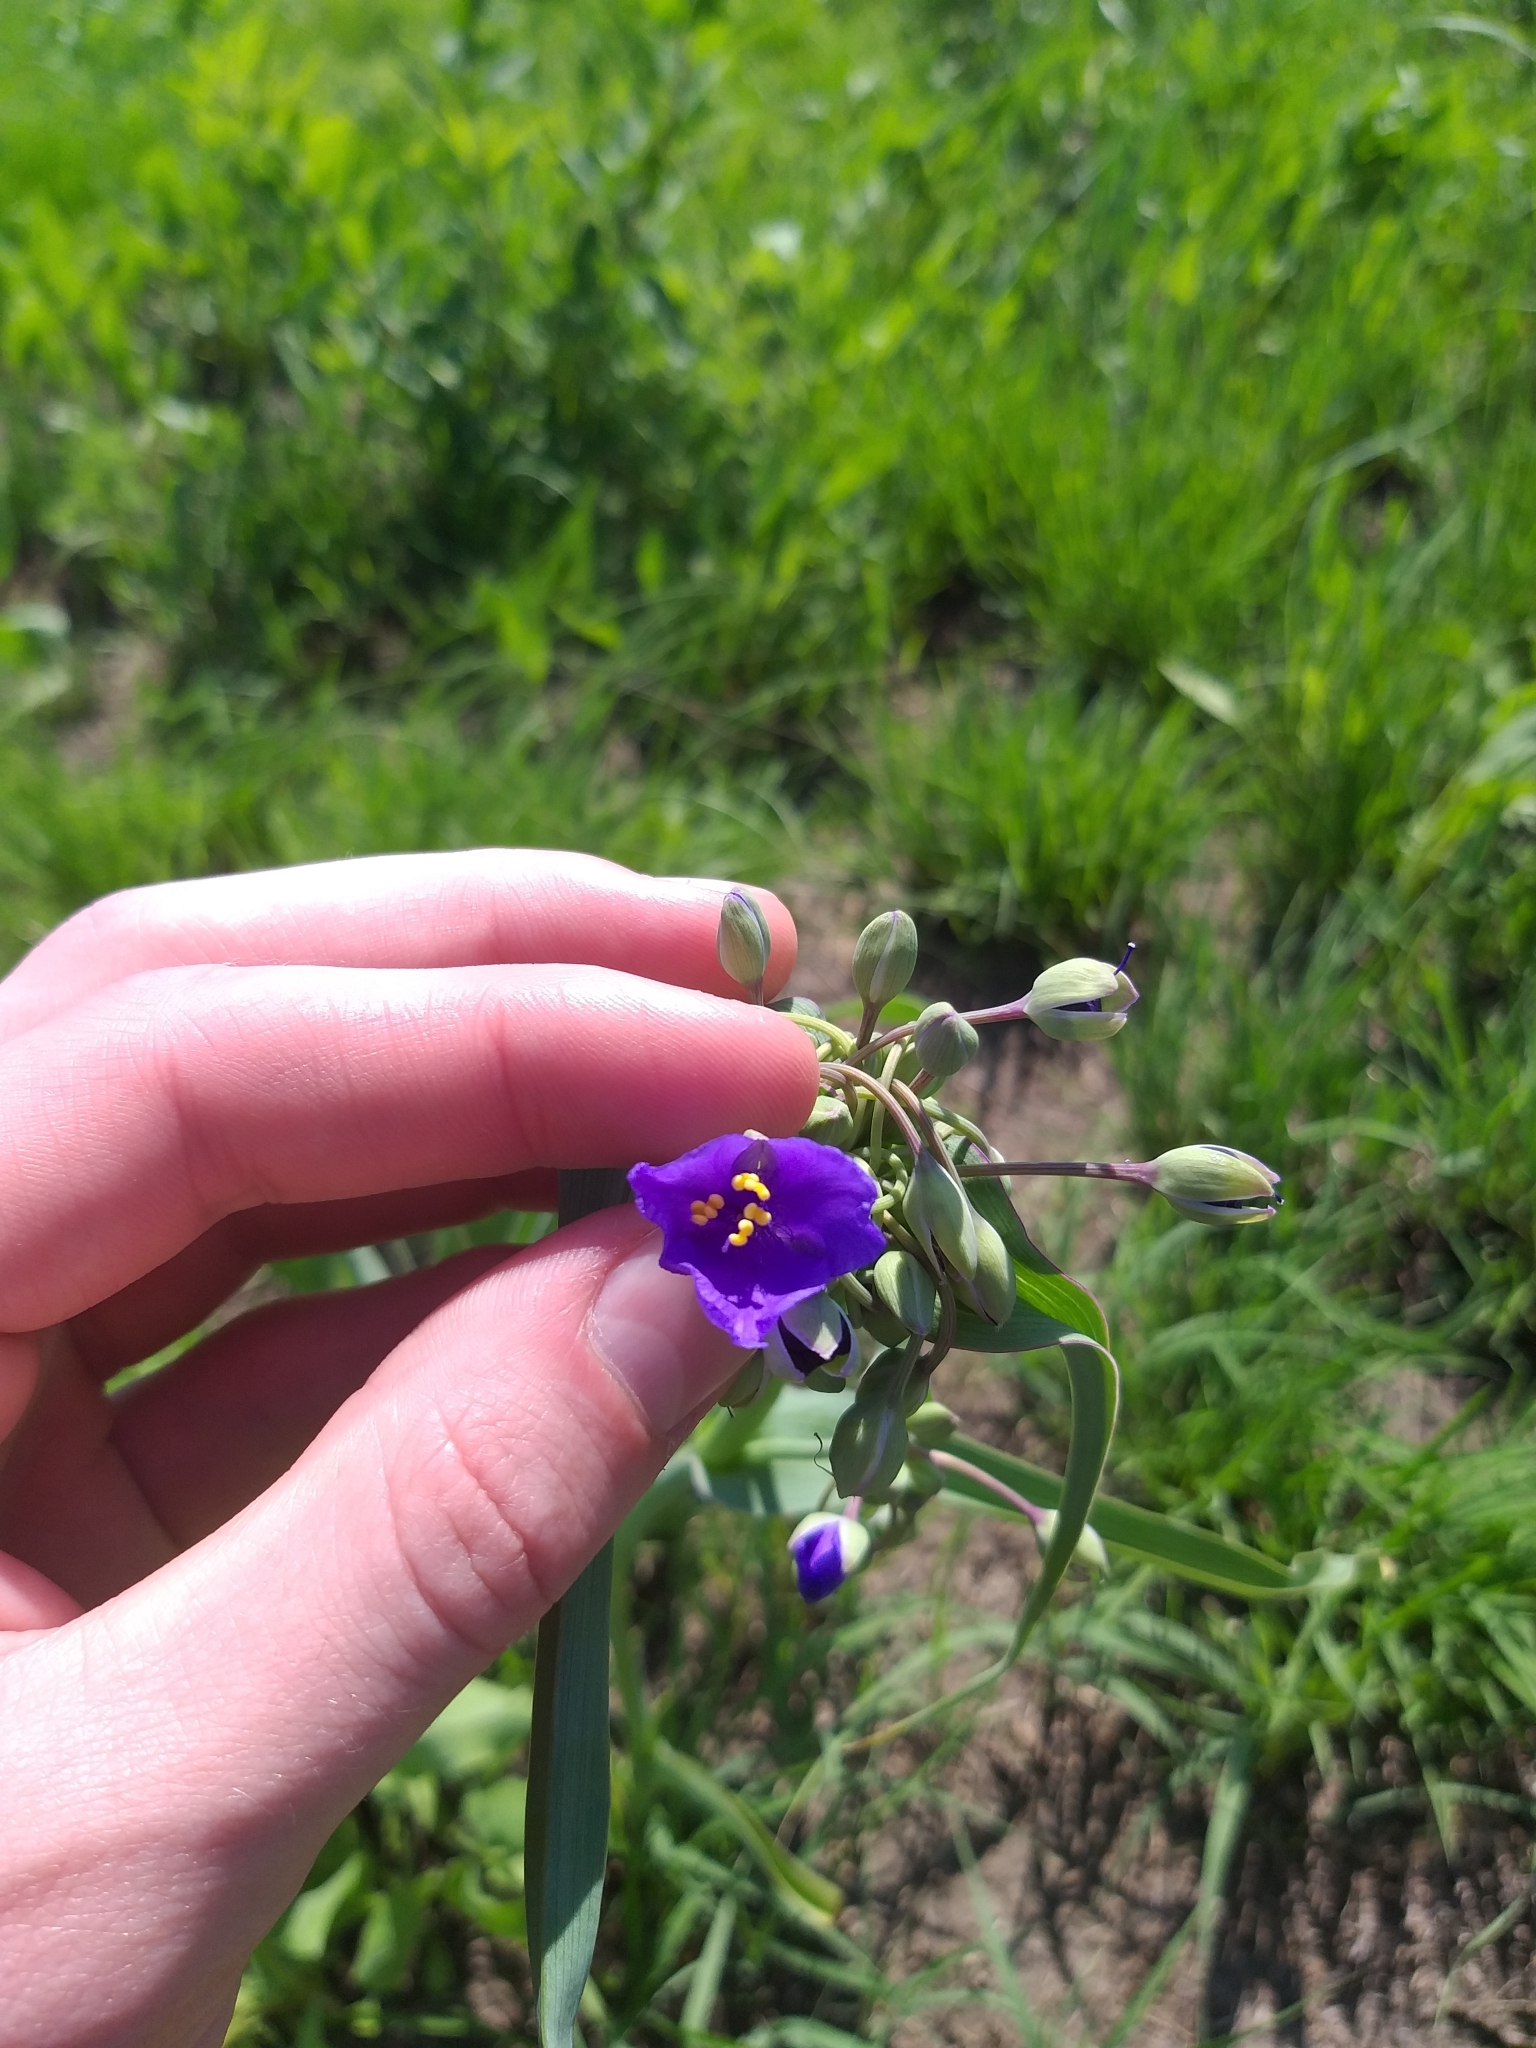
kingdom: Plantae
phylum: Tracheophyta
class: Liliopsida
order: Commelinales
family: Commelinaceae
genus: Tradescantia
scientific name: Tradescantia ohiensis
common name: Ohio spiderwort
